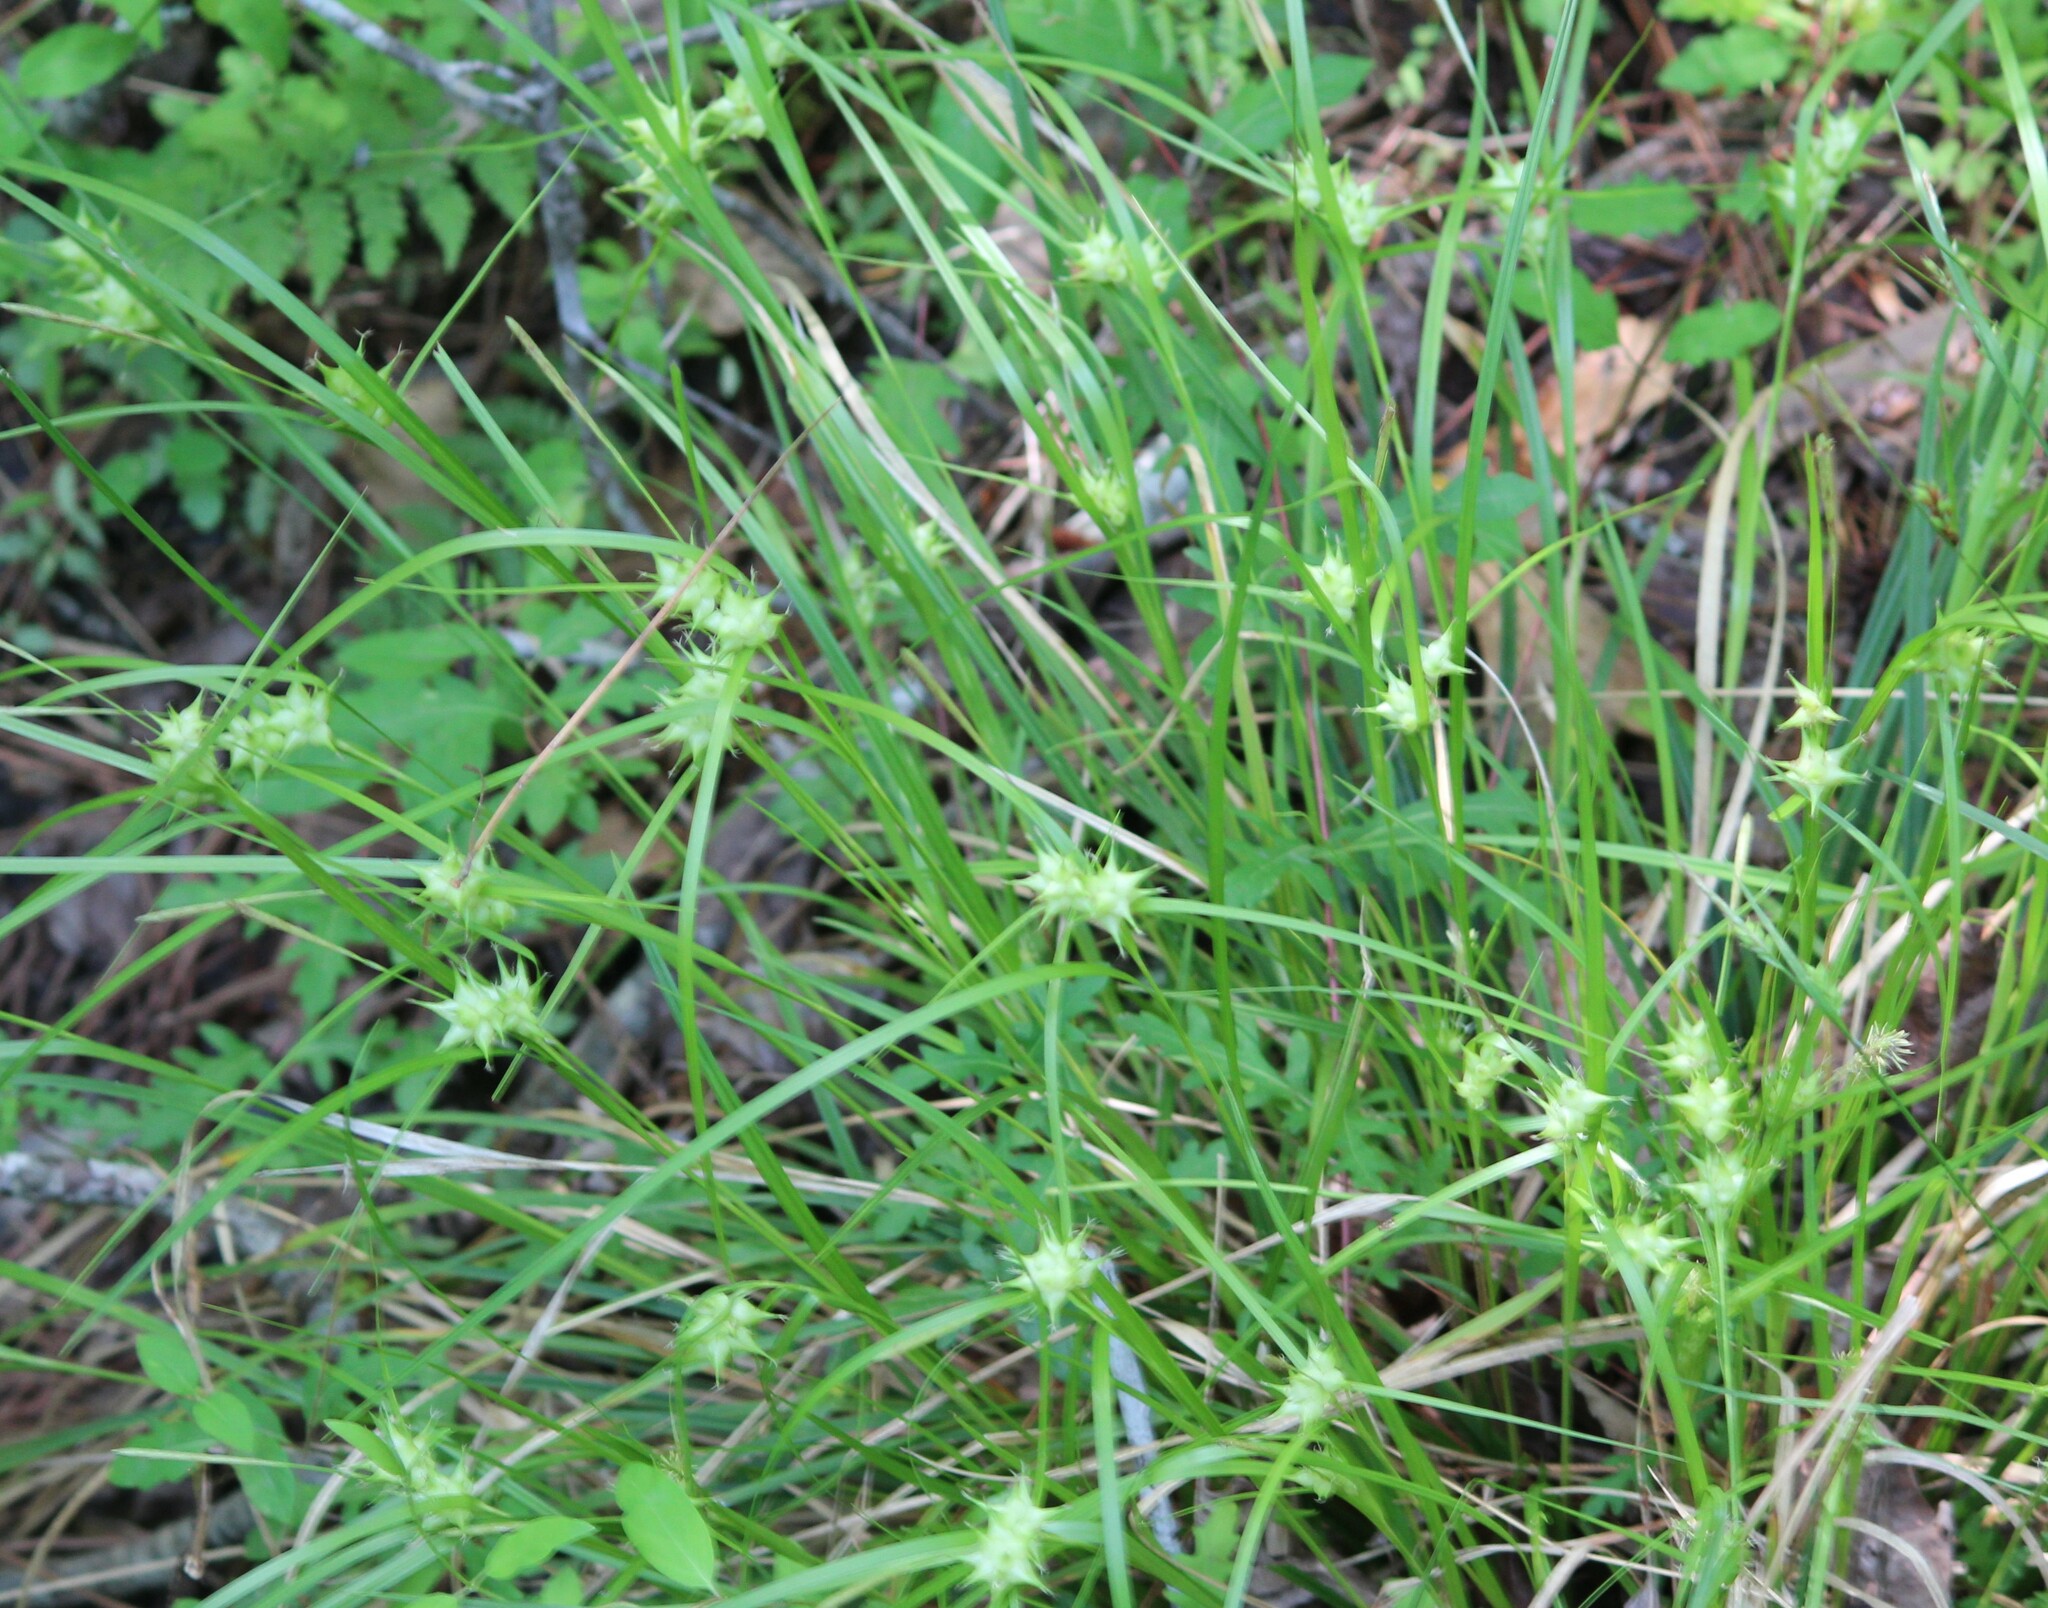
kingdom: Plantae
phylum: Tracheophyta
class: Liliopsida
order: Poales
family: Cyperaceae
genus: Carex
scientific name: Carex intumescens
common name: Greater bladder sedge
